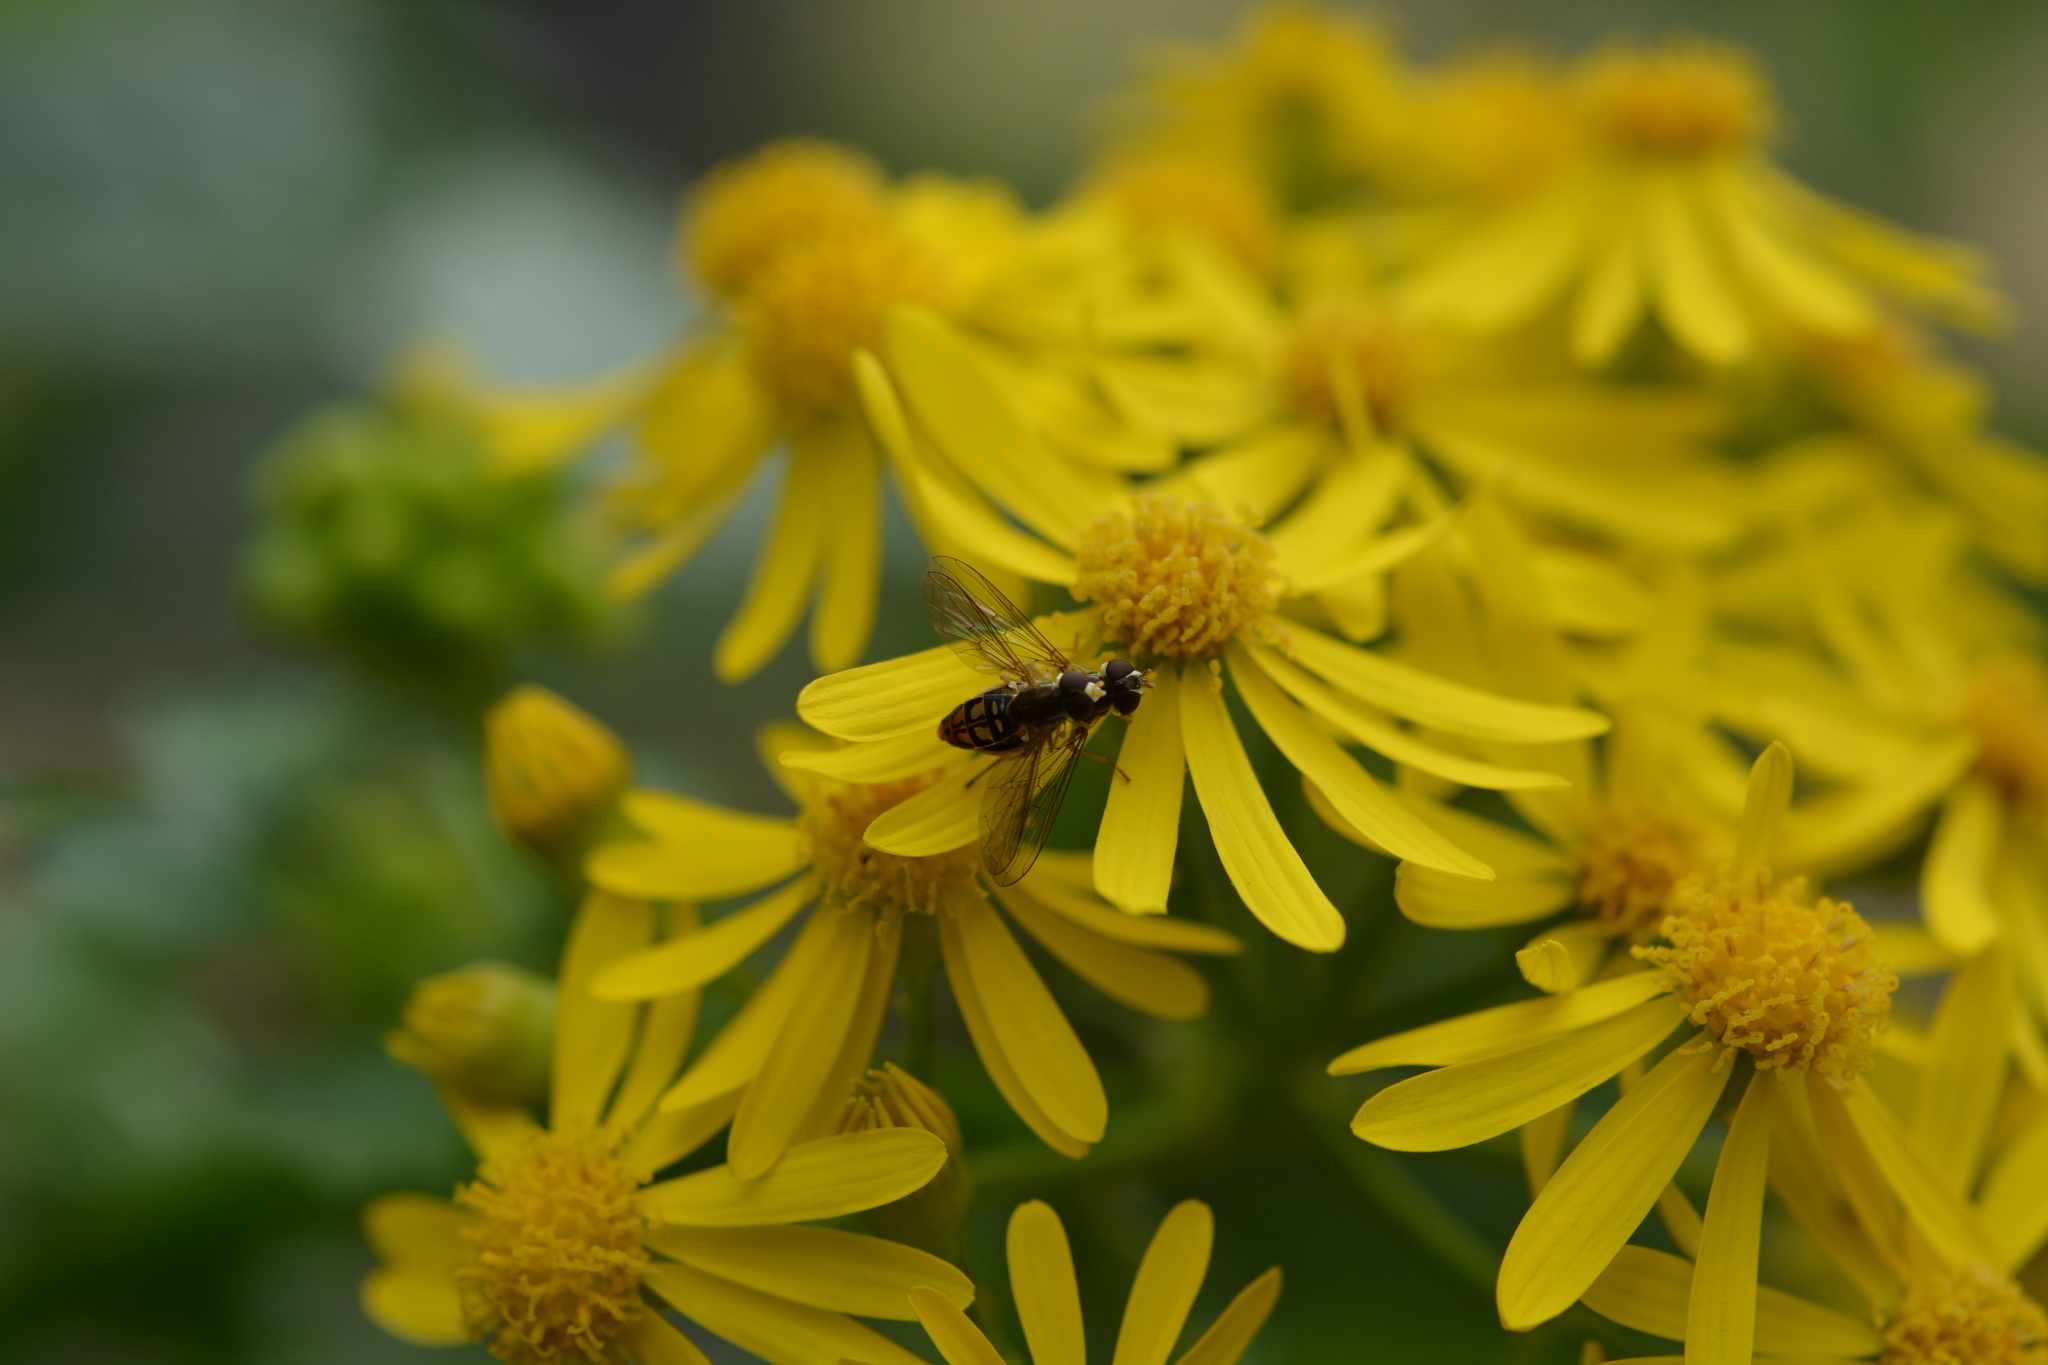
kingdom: Animalia
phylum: Arthropoda
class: Insecta
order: Diptera
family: Syrphidae
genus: Toxomerus
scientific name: Toxomerus marginatus
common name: Syrphid fly
